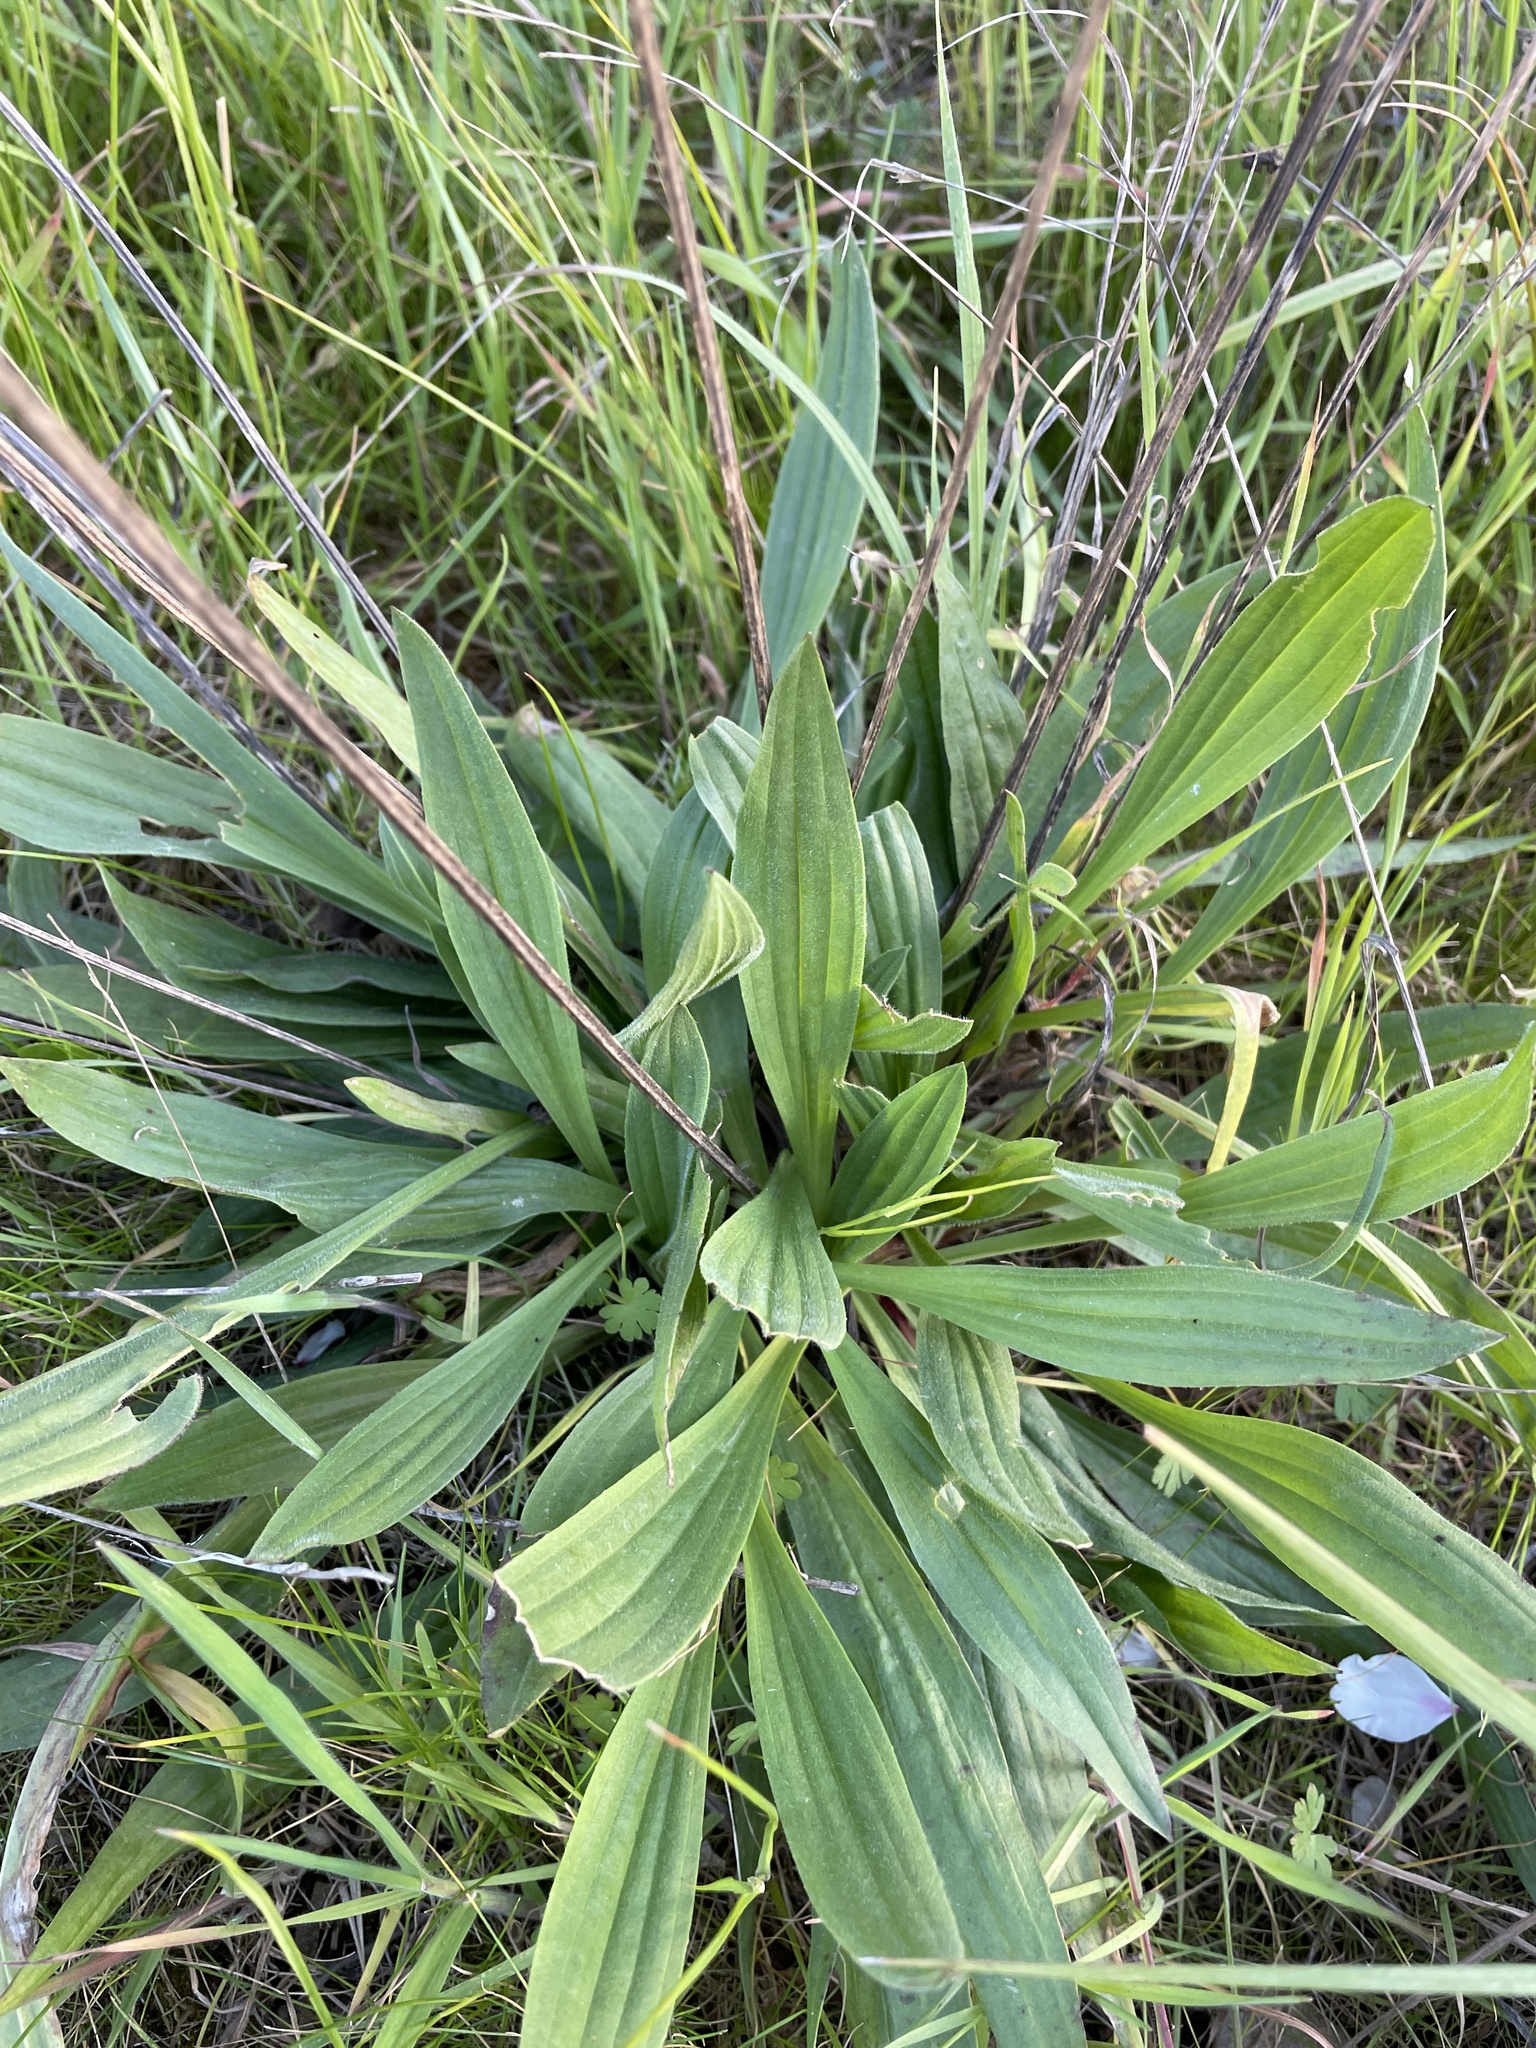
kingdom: Plantae
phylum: Tracheophyta
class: Magnoliopsida
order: Lamiales
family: Plantaginaceae
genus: Plantago
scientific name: Plantago lanceolata
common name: Ribwort plantain
